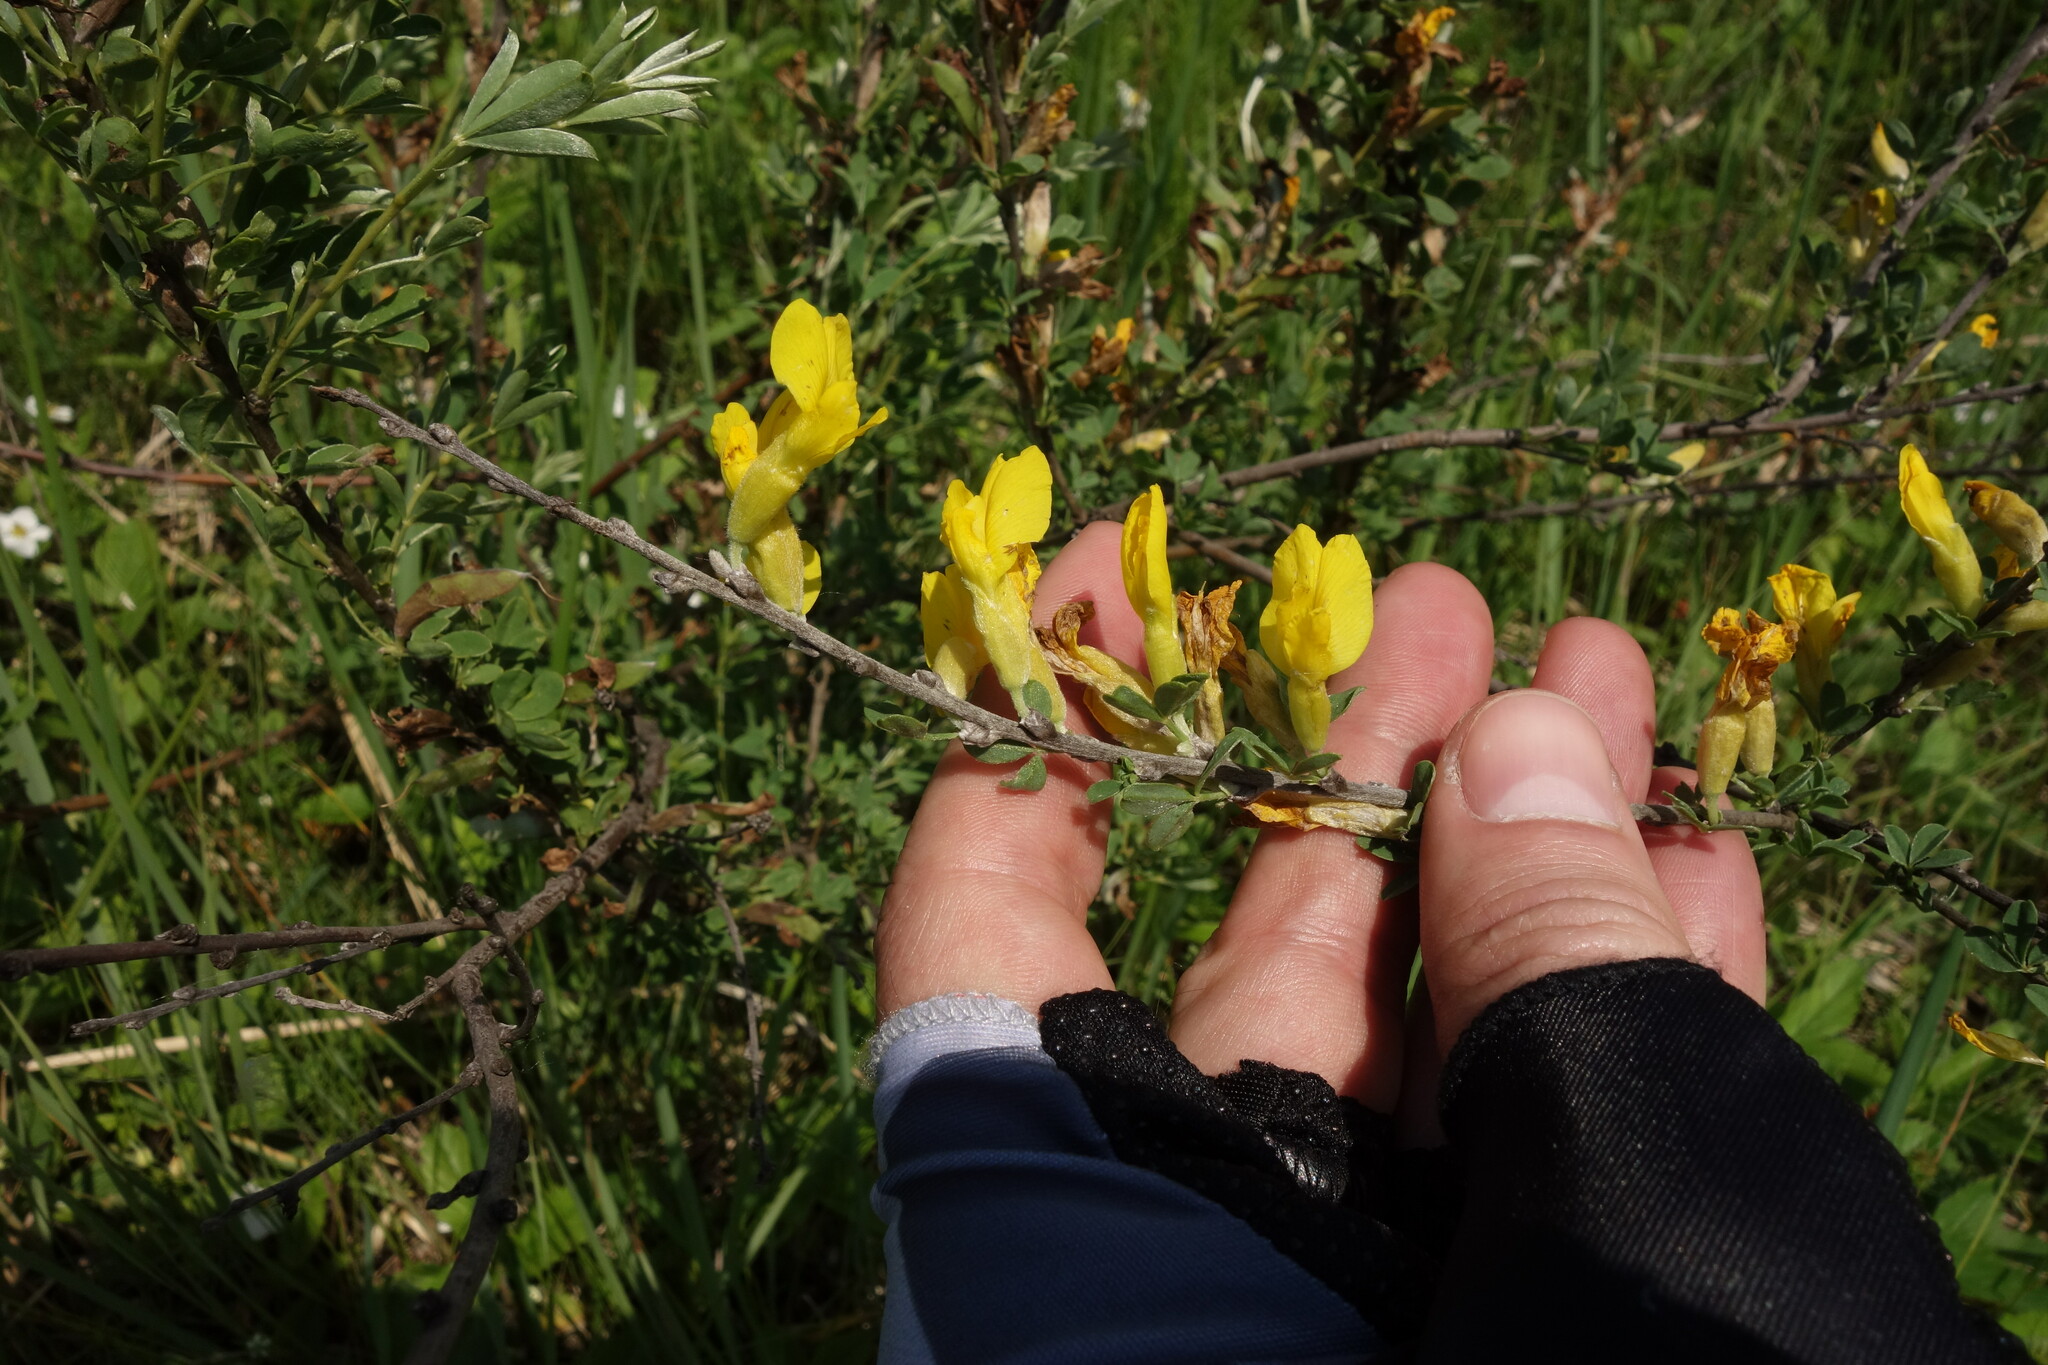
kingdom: Plantae
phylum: Tracheophyta
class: Magnoliopsida
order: Fabales
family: Fabaceae
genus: Chamaecytisus
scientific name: Chamaecytisus ruthenicus
